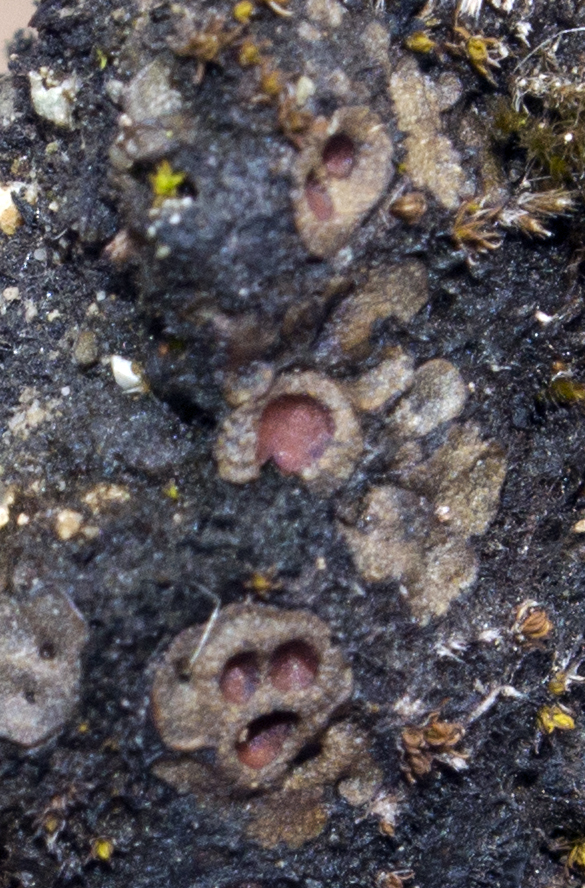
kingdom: Fungi
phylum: Ascomycota
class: Lichinomycetes
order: Lichinales
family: Lichinaceae
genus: Heppia
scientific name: Heppia adglutinata
